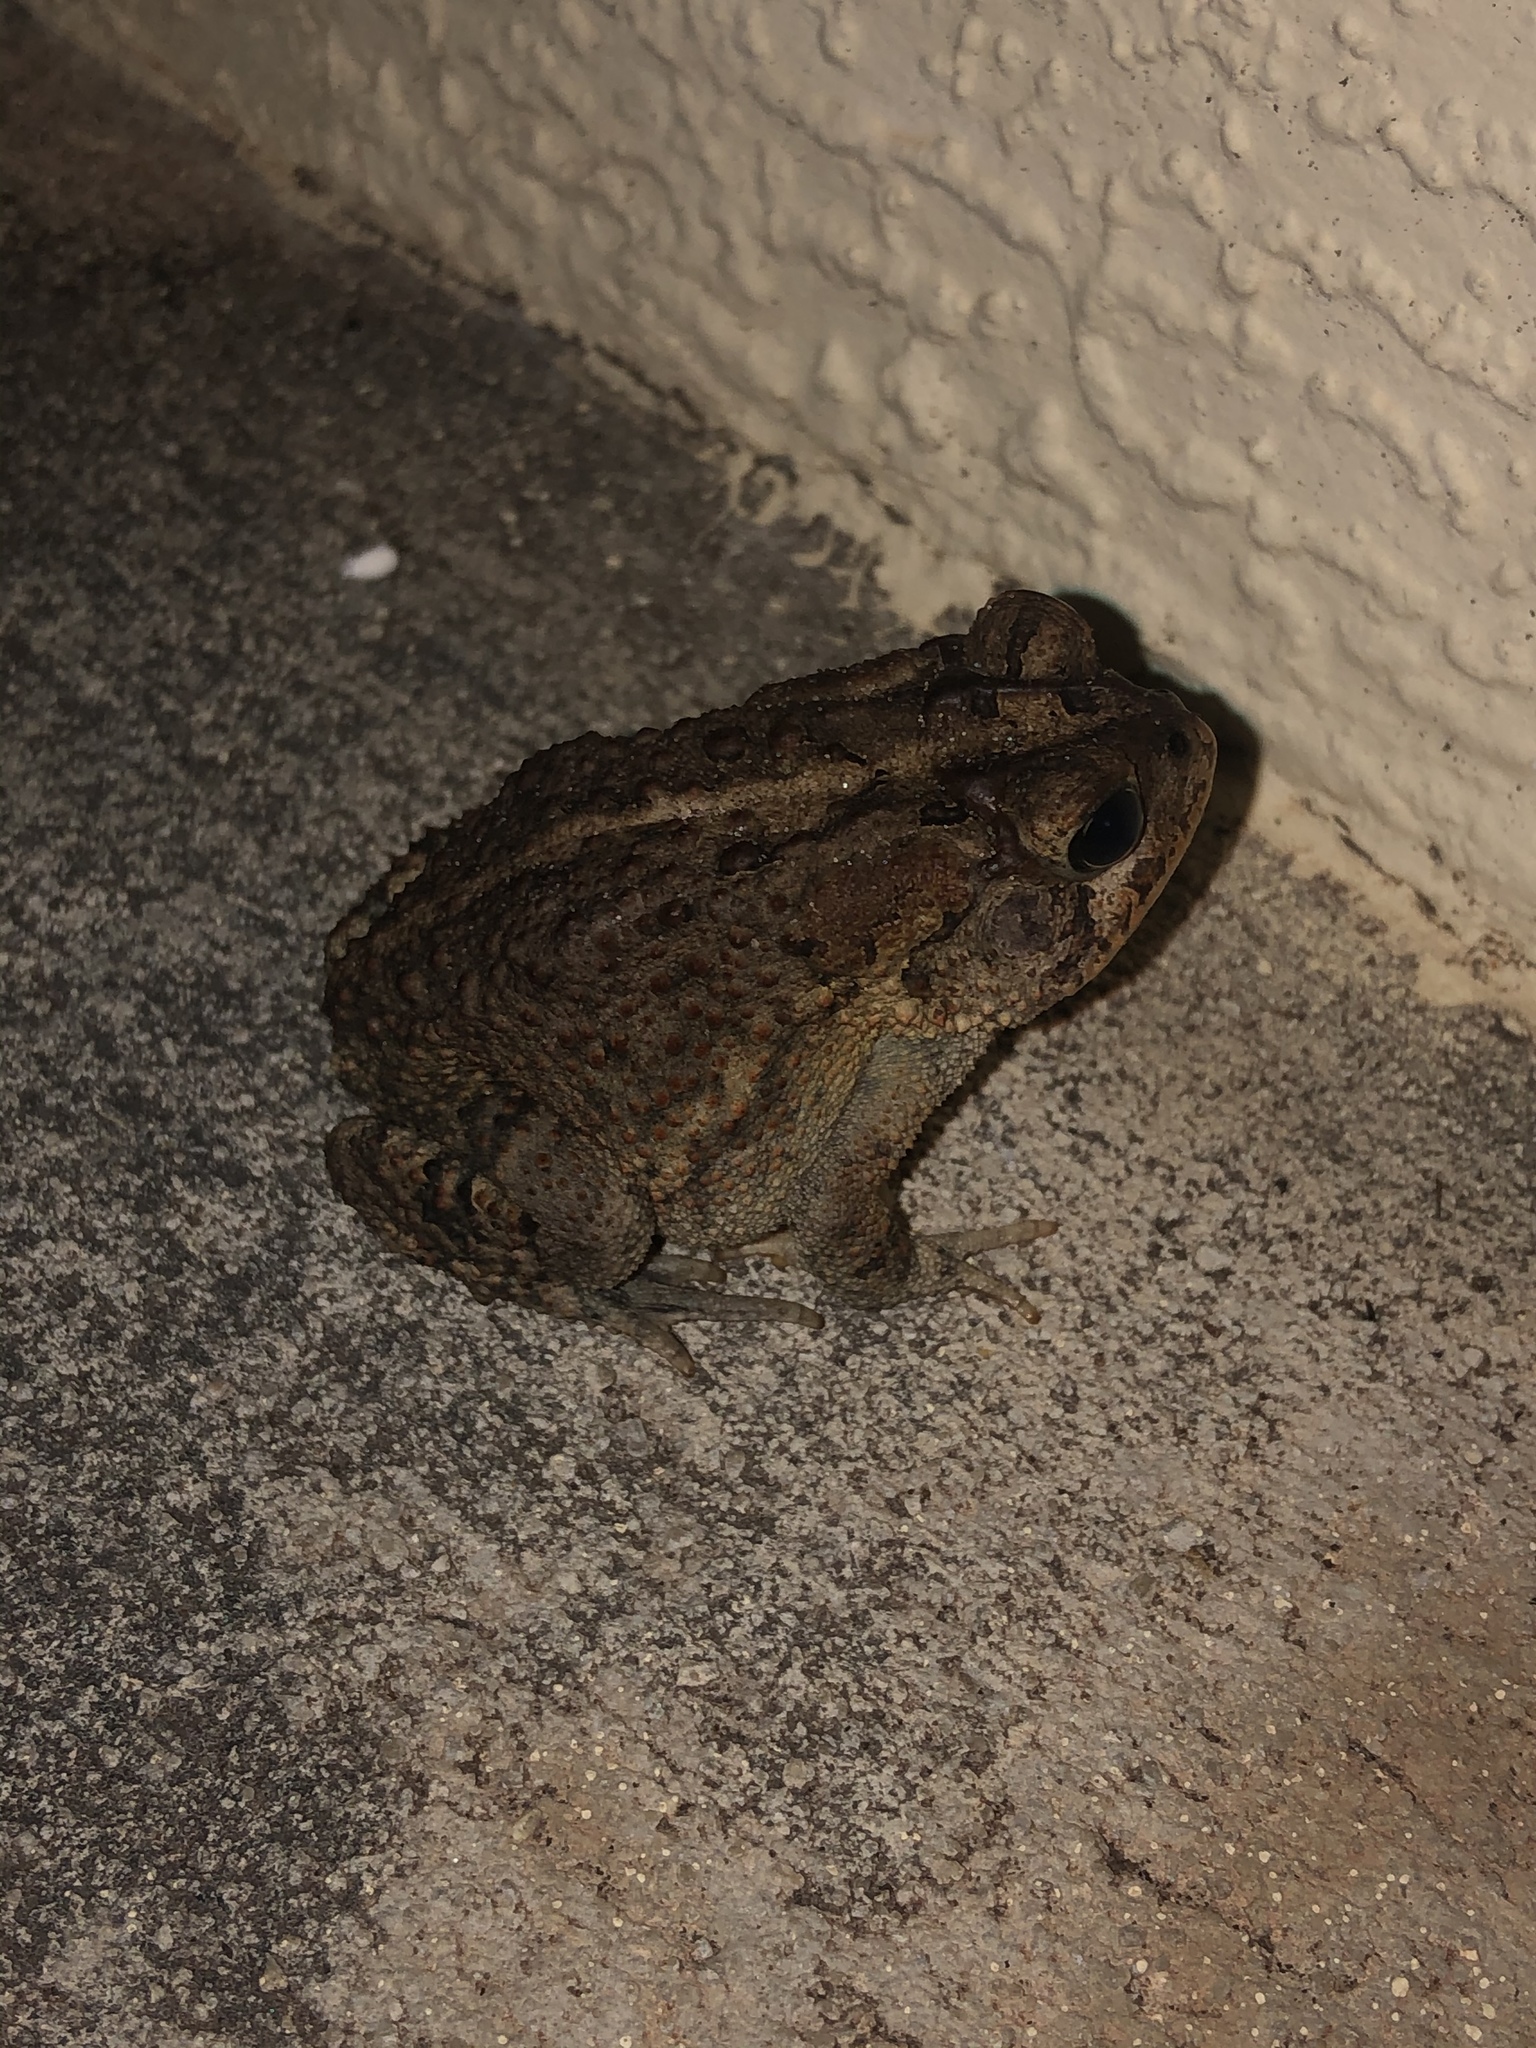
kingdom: Animalia
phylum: Chordata
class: Amphibia
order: Anura
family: Bufonidae
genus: Anaxyrus
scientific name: Anaxyrus terrestris
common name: Southern toad
